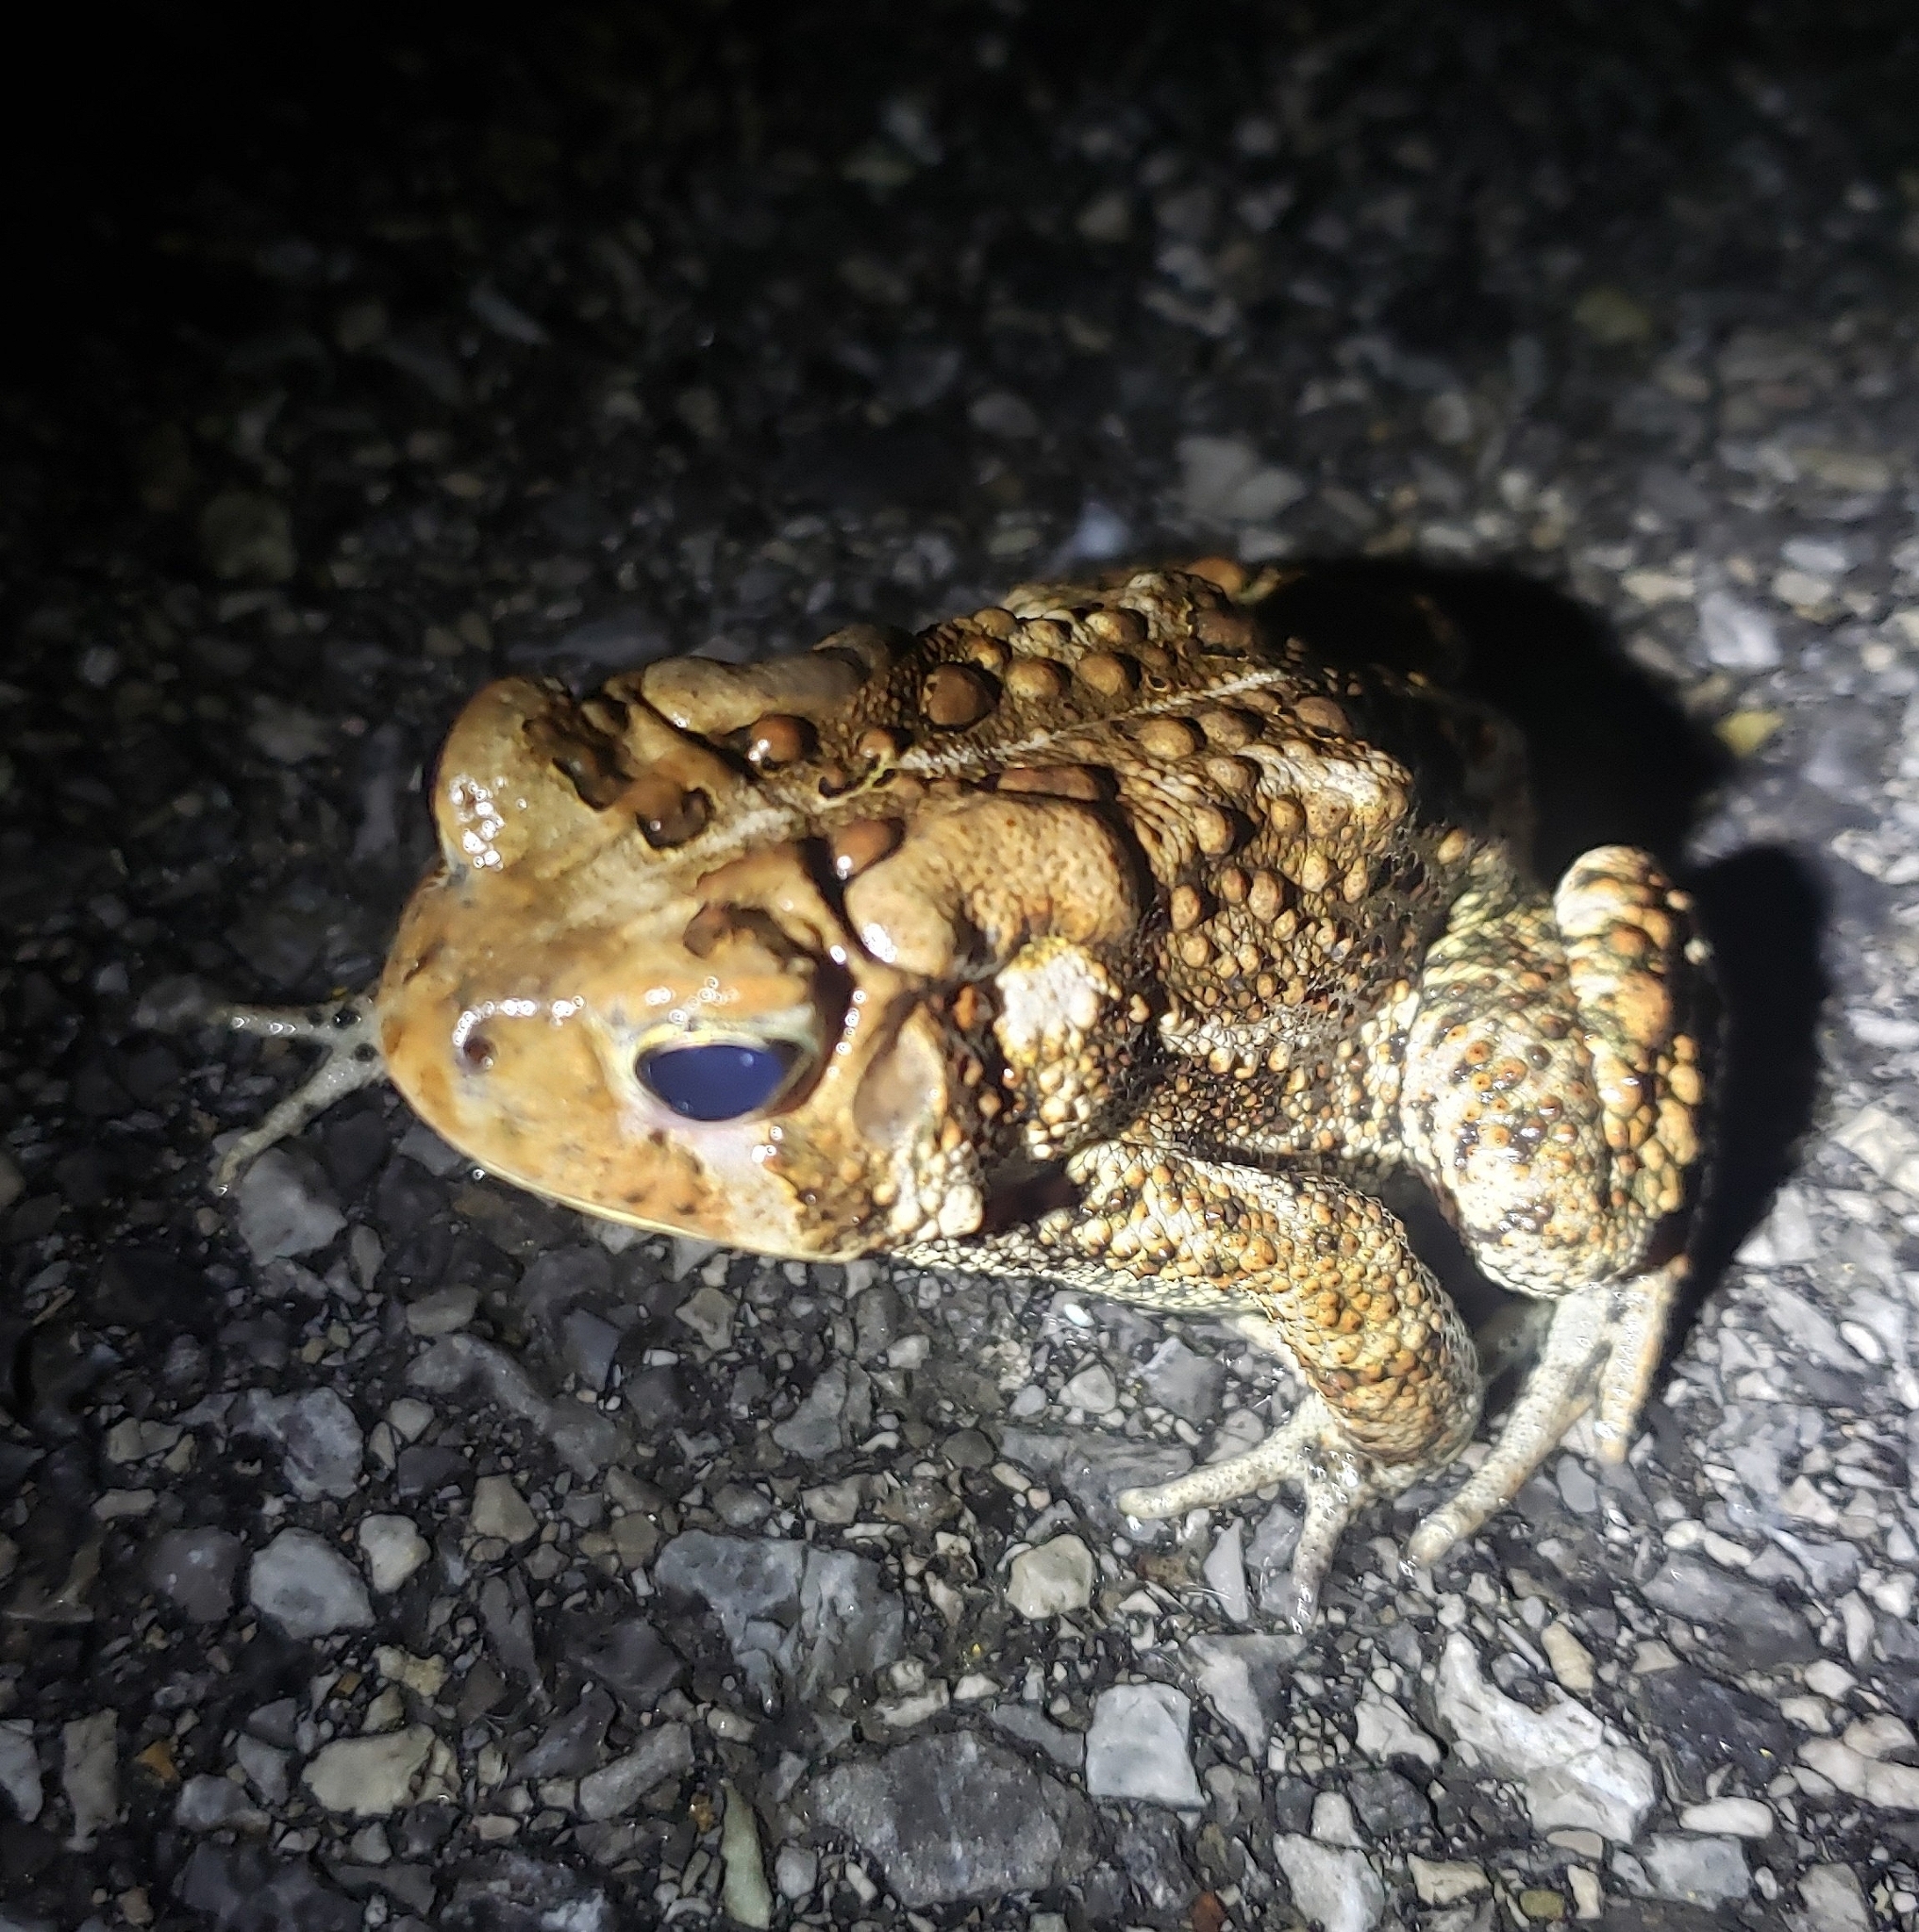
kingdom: Animalia
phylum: Chordata
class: Amphibia
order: Anura
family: Bufonidae
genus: Anaxyrus
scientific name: Anaxyrus americanus
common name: American toad
